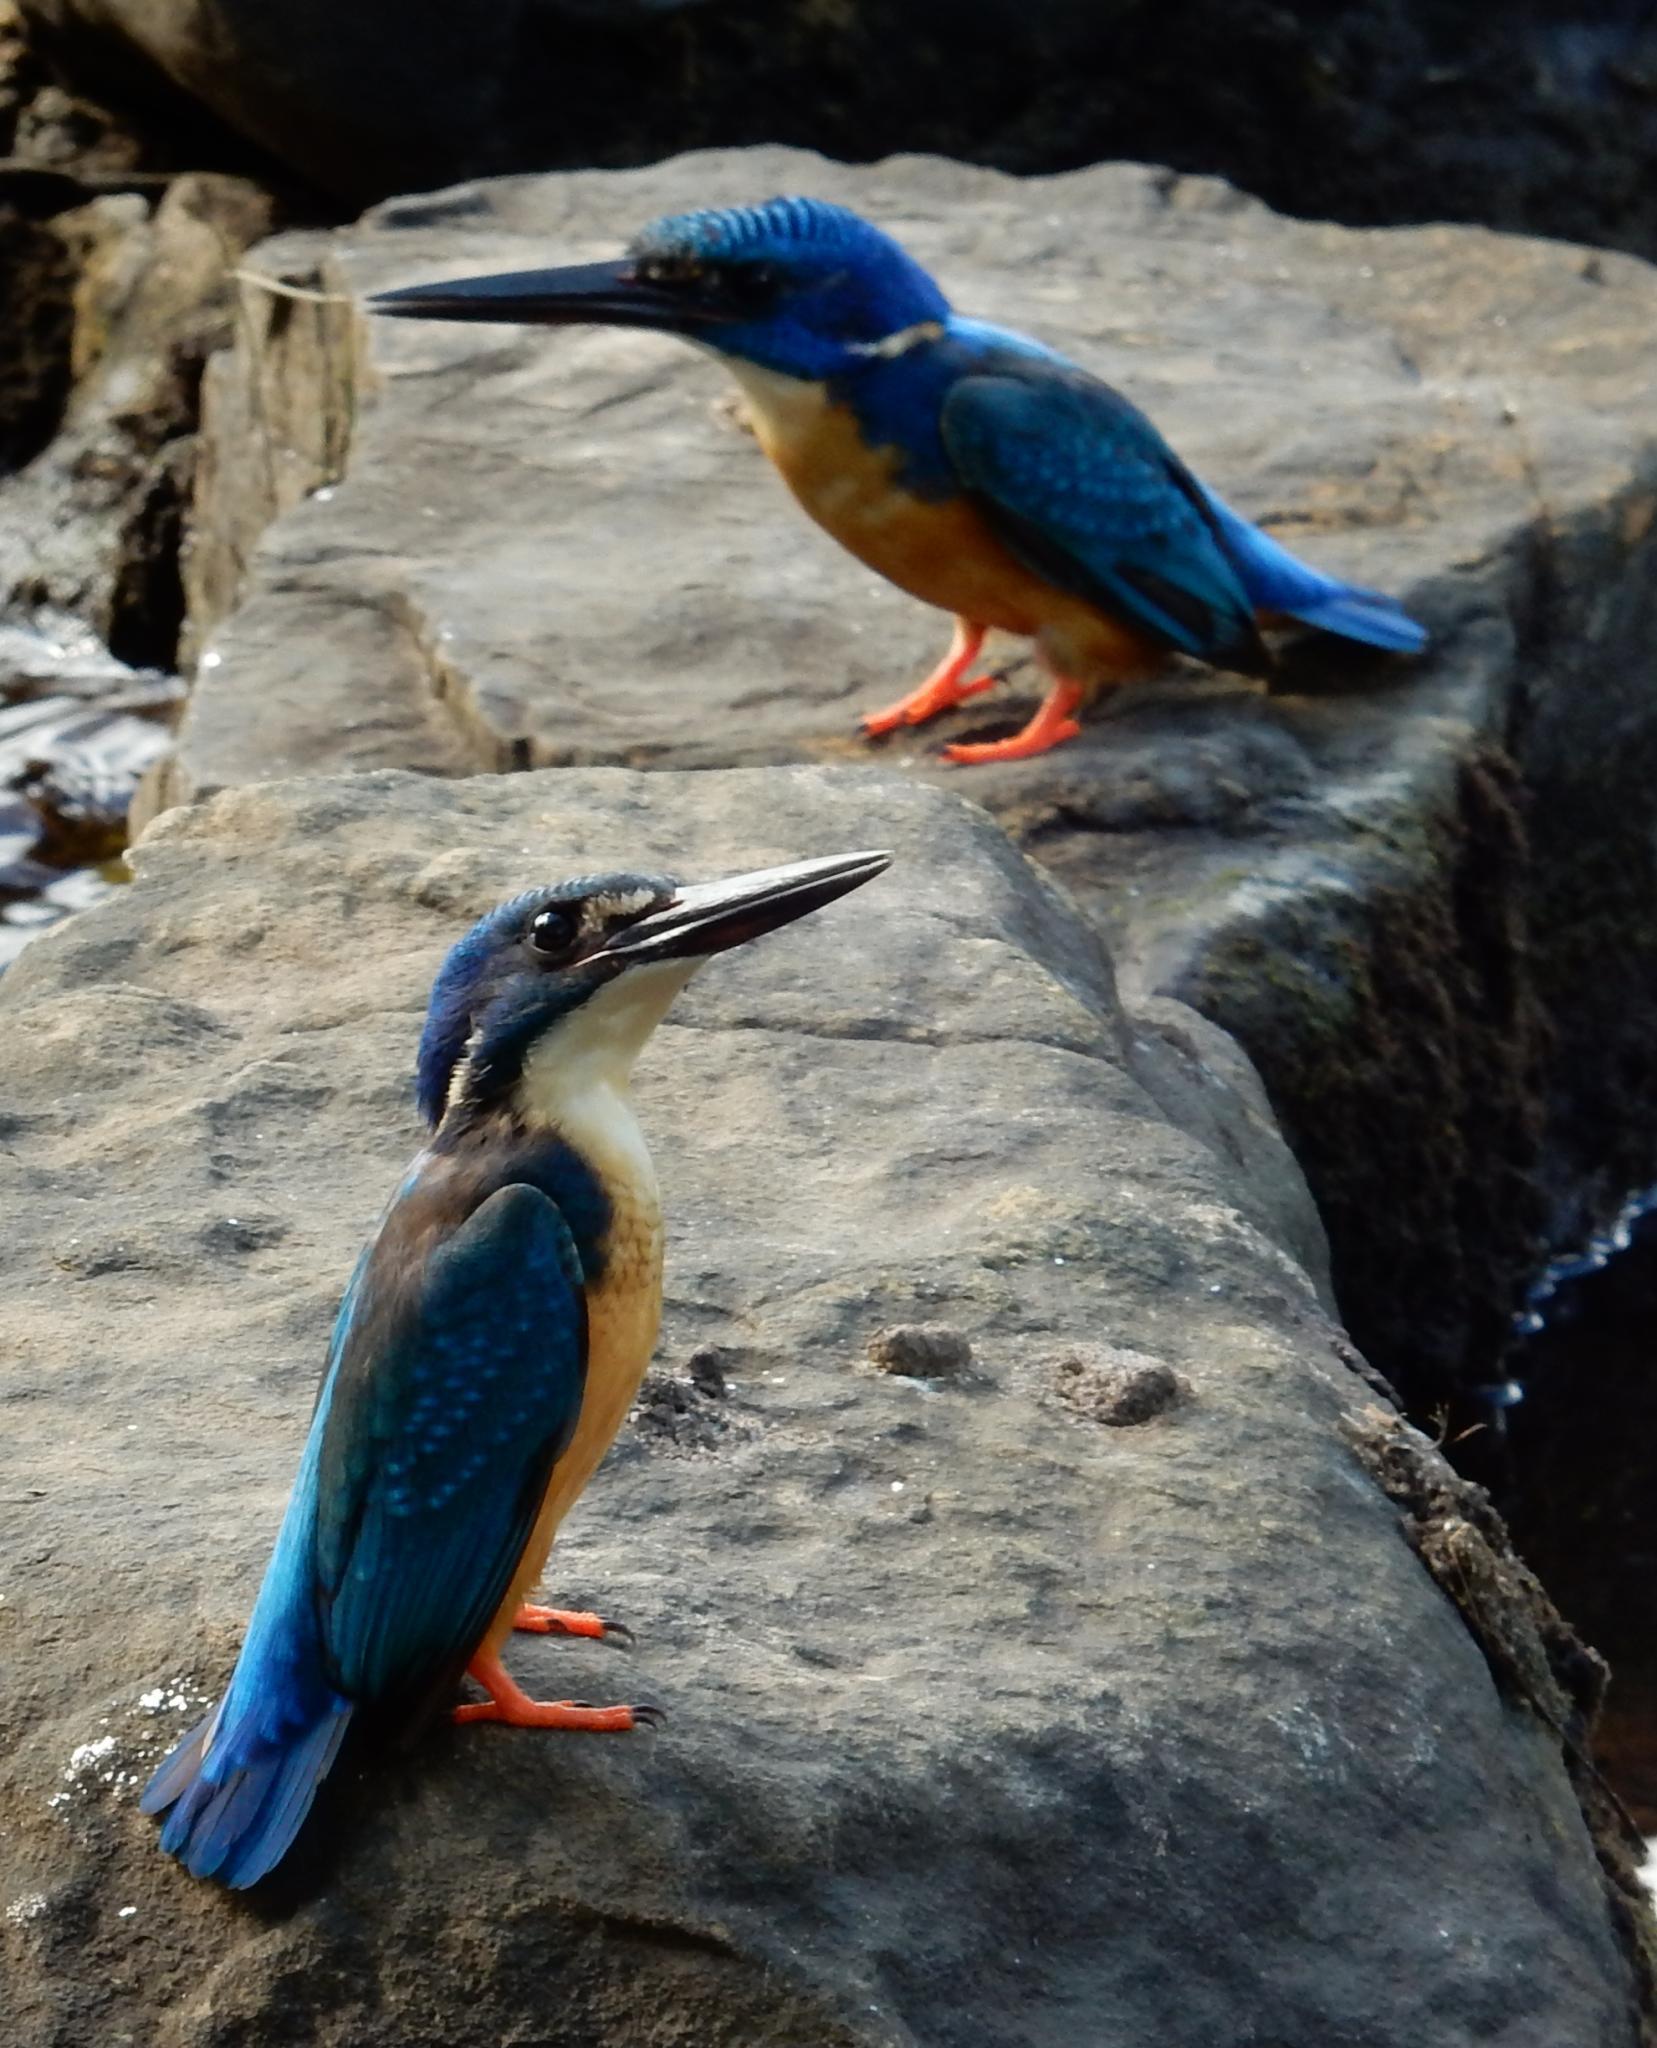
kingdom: Animalia
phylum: Chordata
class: Aves
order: Coraciiformes
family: Alcedinidae
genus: Alcedo
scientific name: Alcedo semitorquata
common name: Half-collared kingfisher
